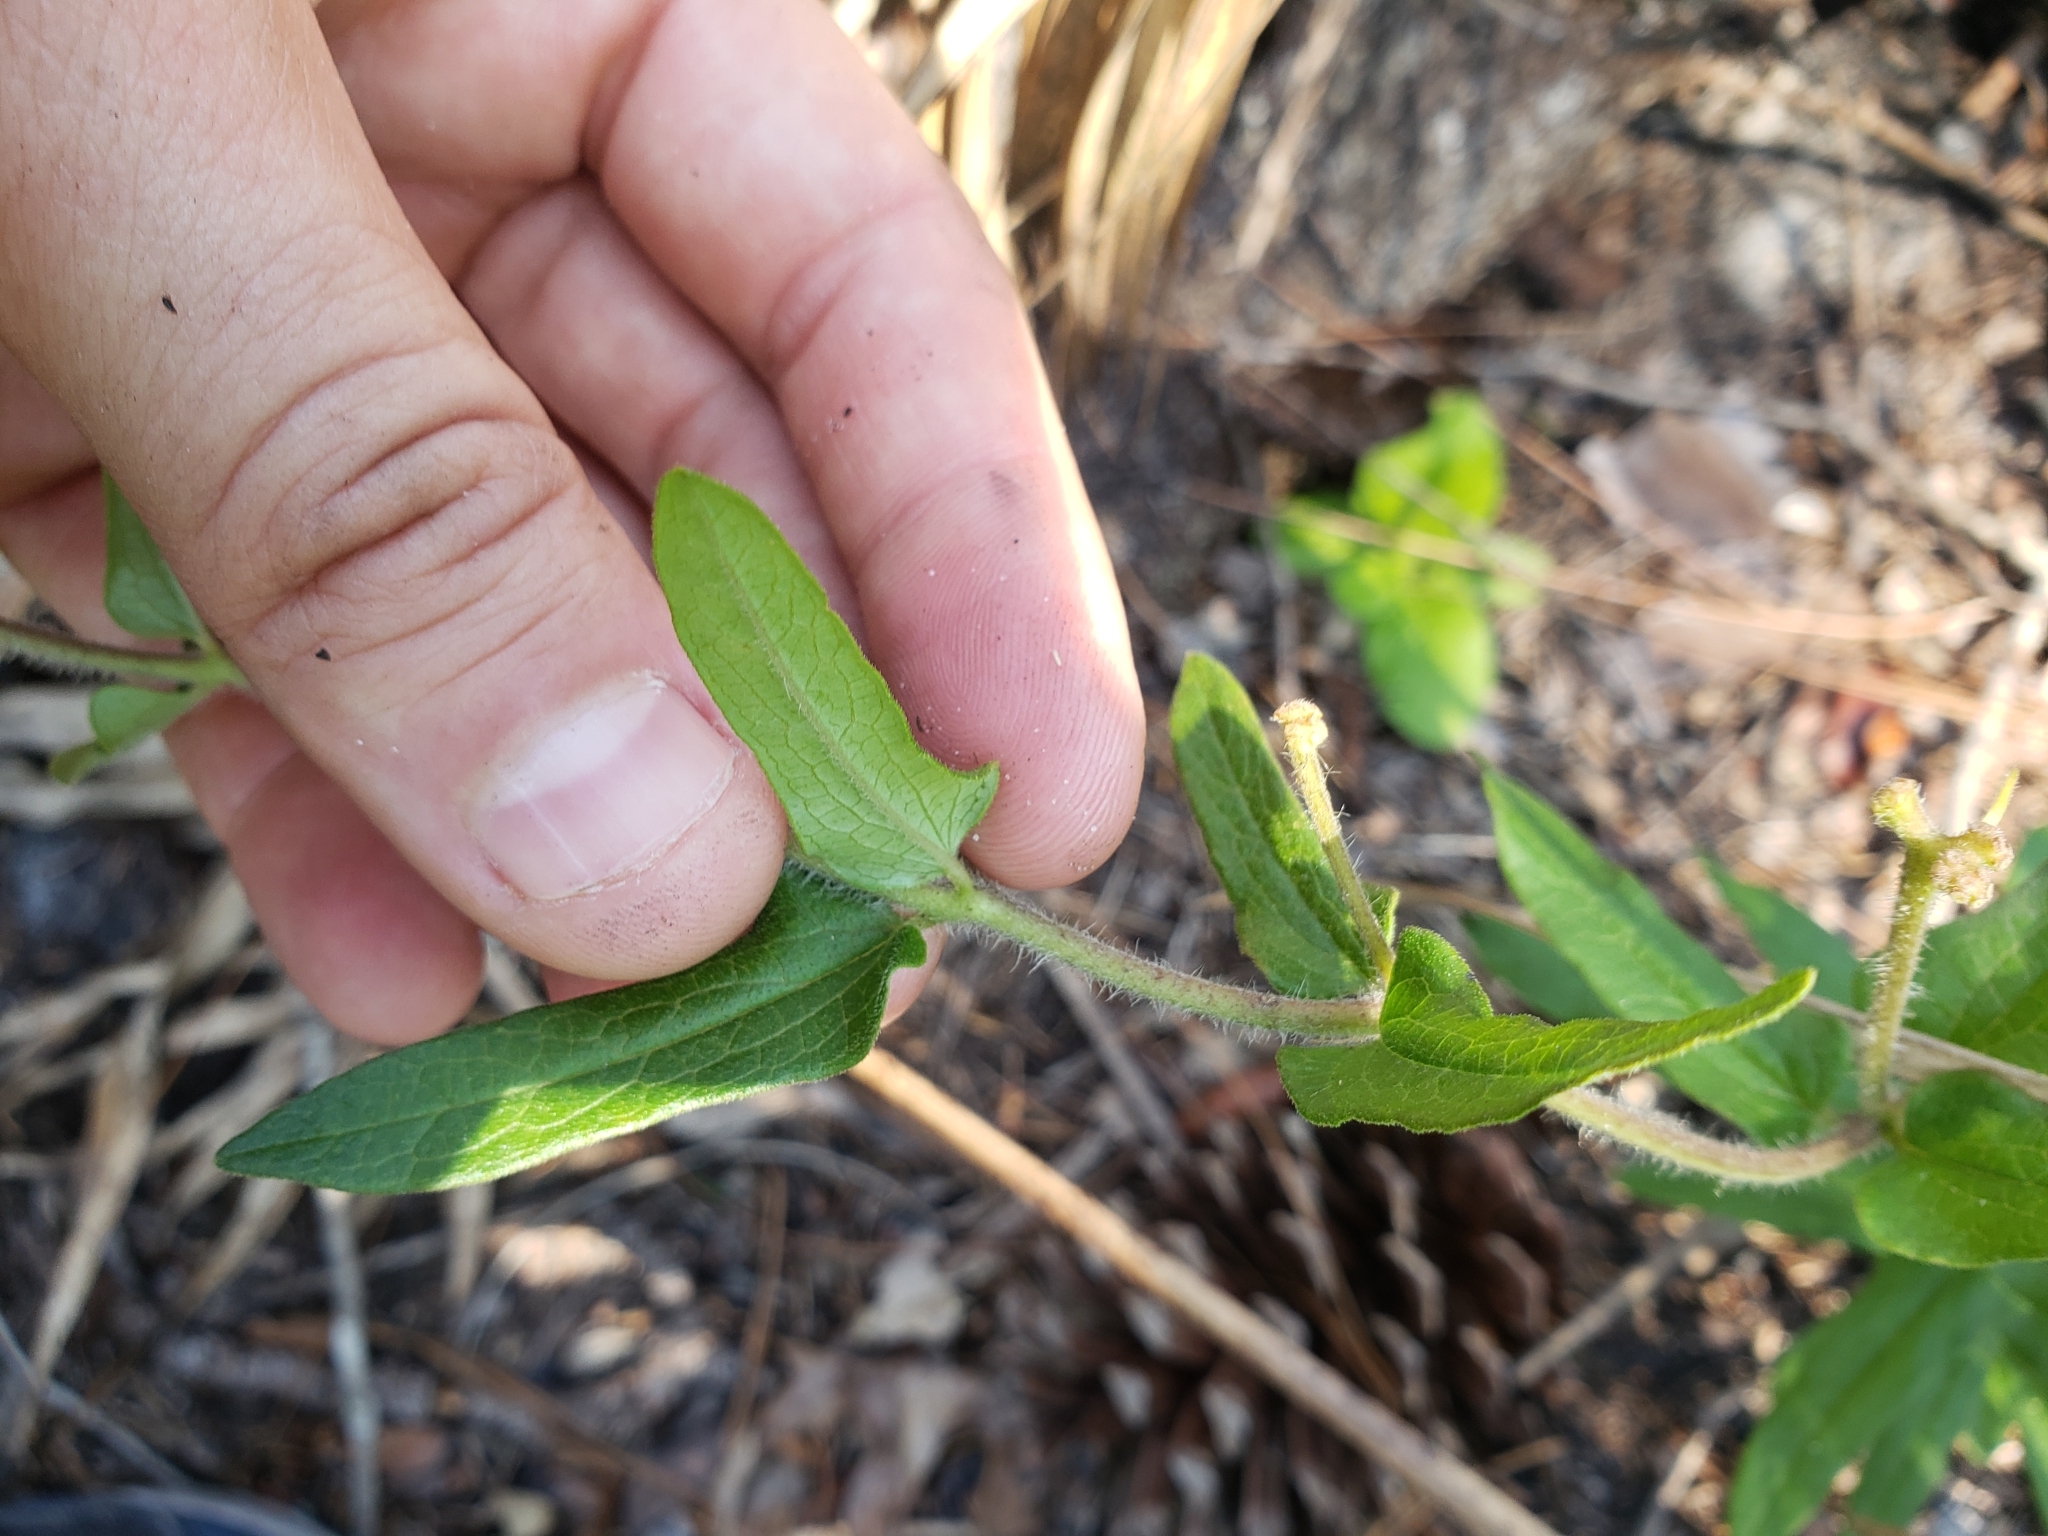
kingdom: Plantae
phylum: Tracheophyta
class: Magnoliopsida
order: Gentianales
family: Apocynaceae
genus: Asclepias
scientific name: Asclepias tuberosa
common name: Butterfly milkweed
